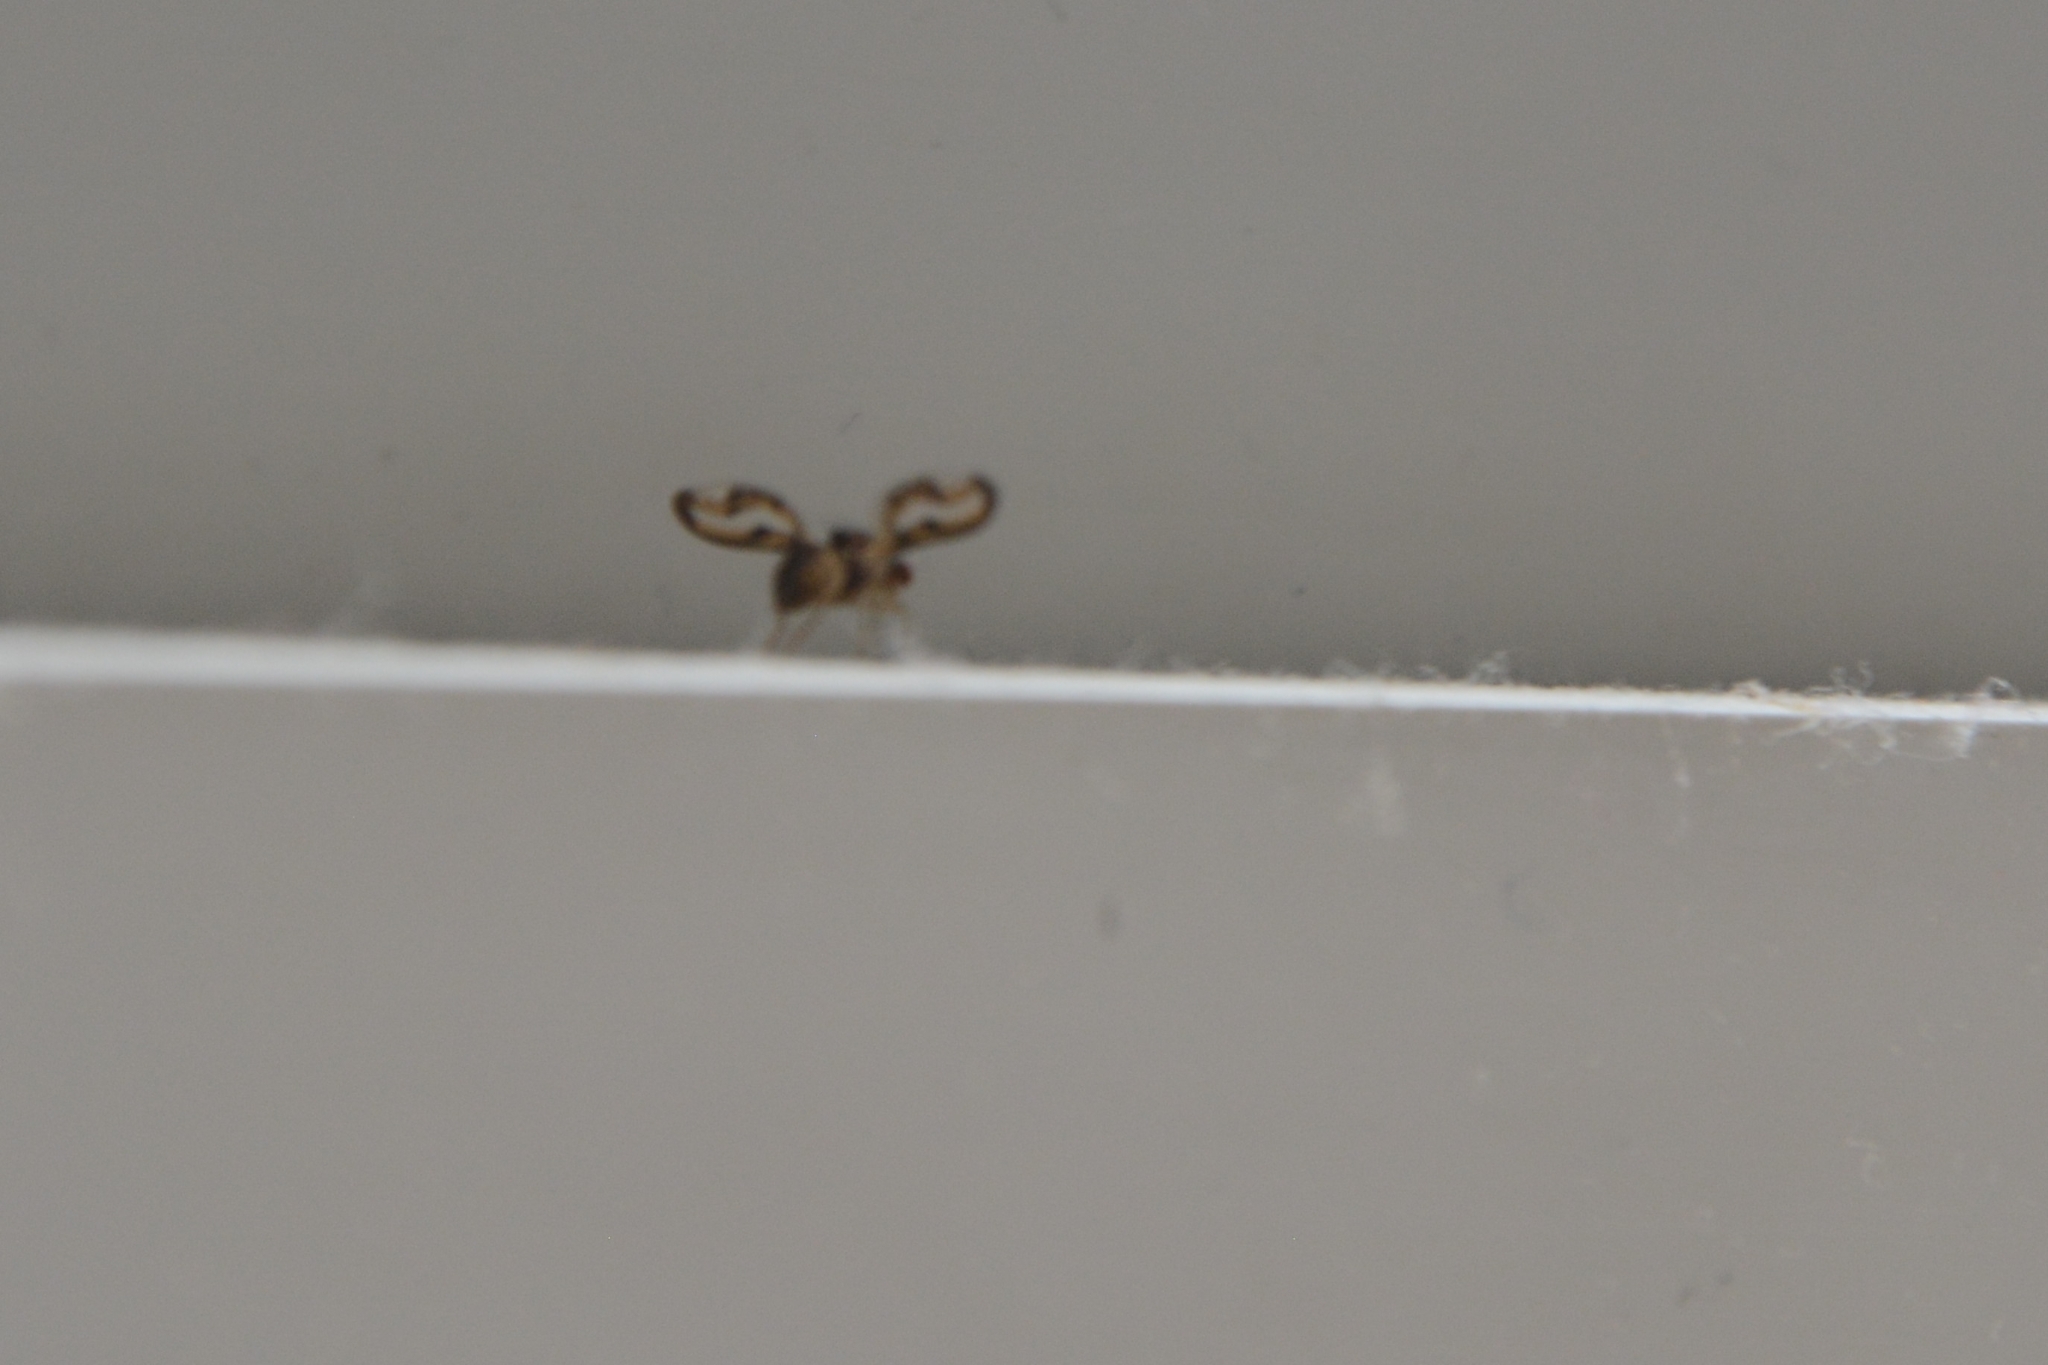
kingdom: Animalia
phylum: Arthropoda
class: Insecta
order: Diptera
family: Pallopteridae
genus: Toxonevra
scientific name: Toxonevra muliebris
